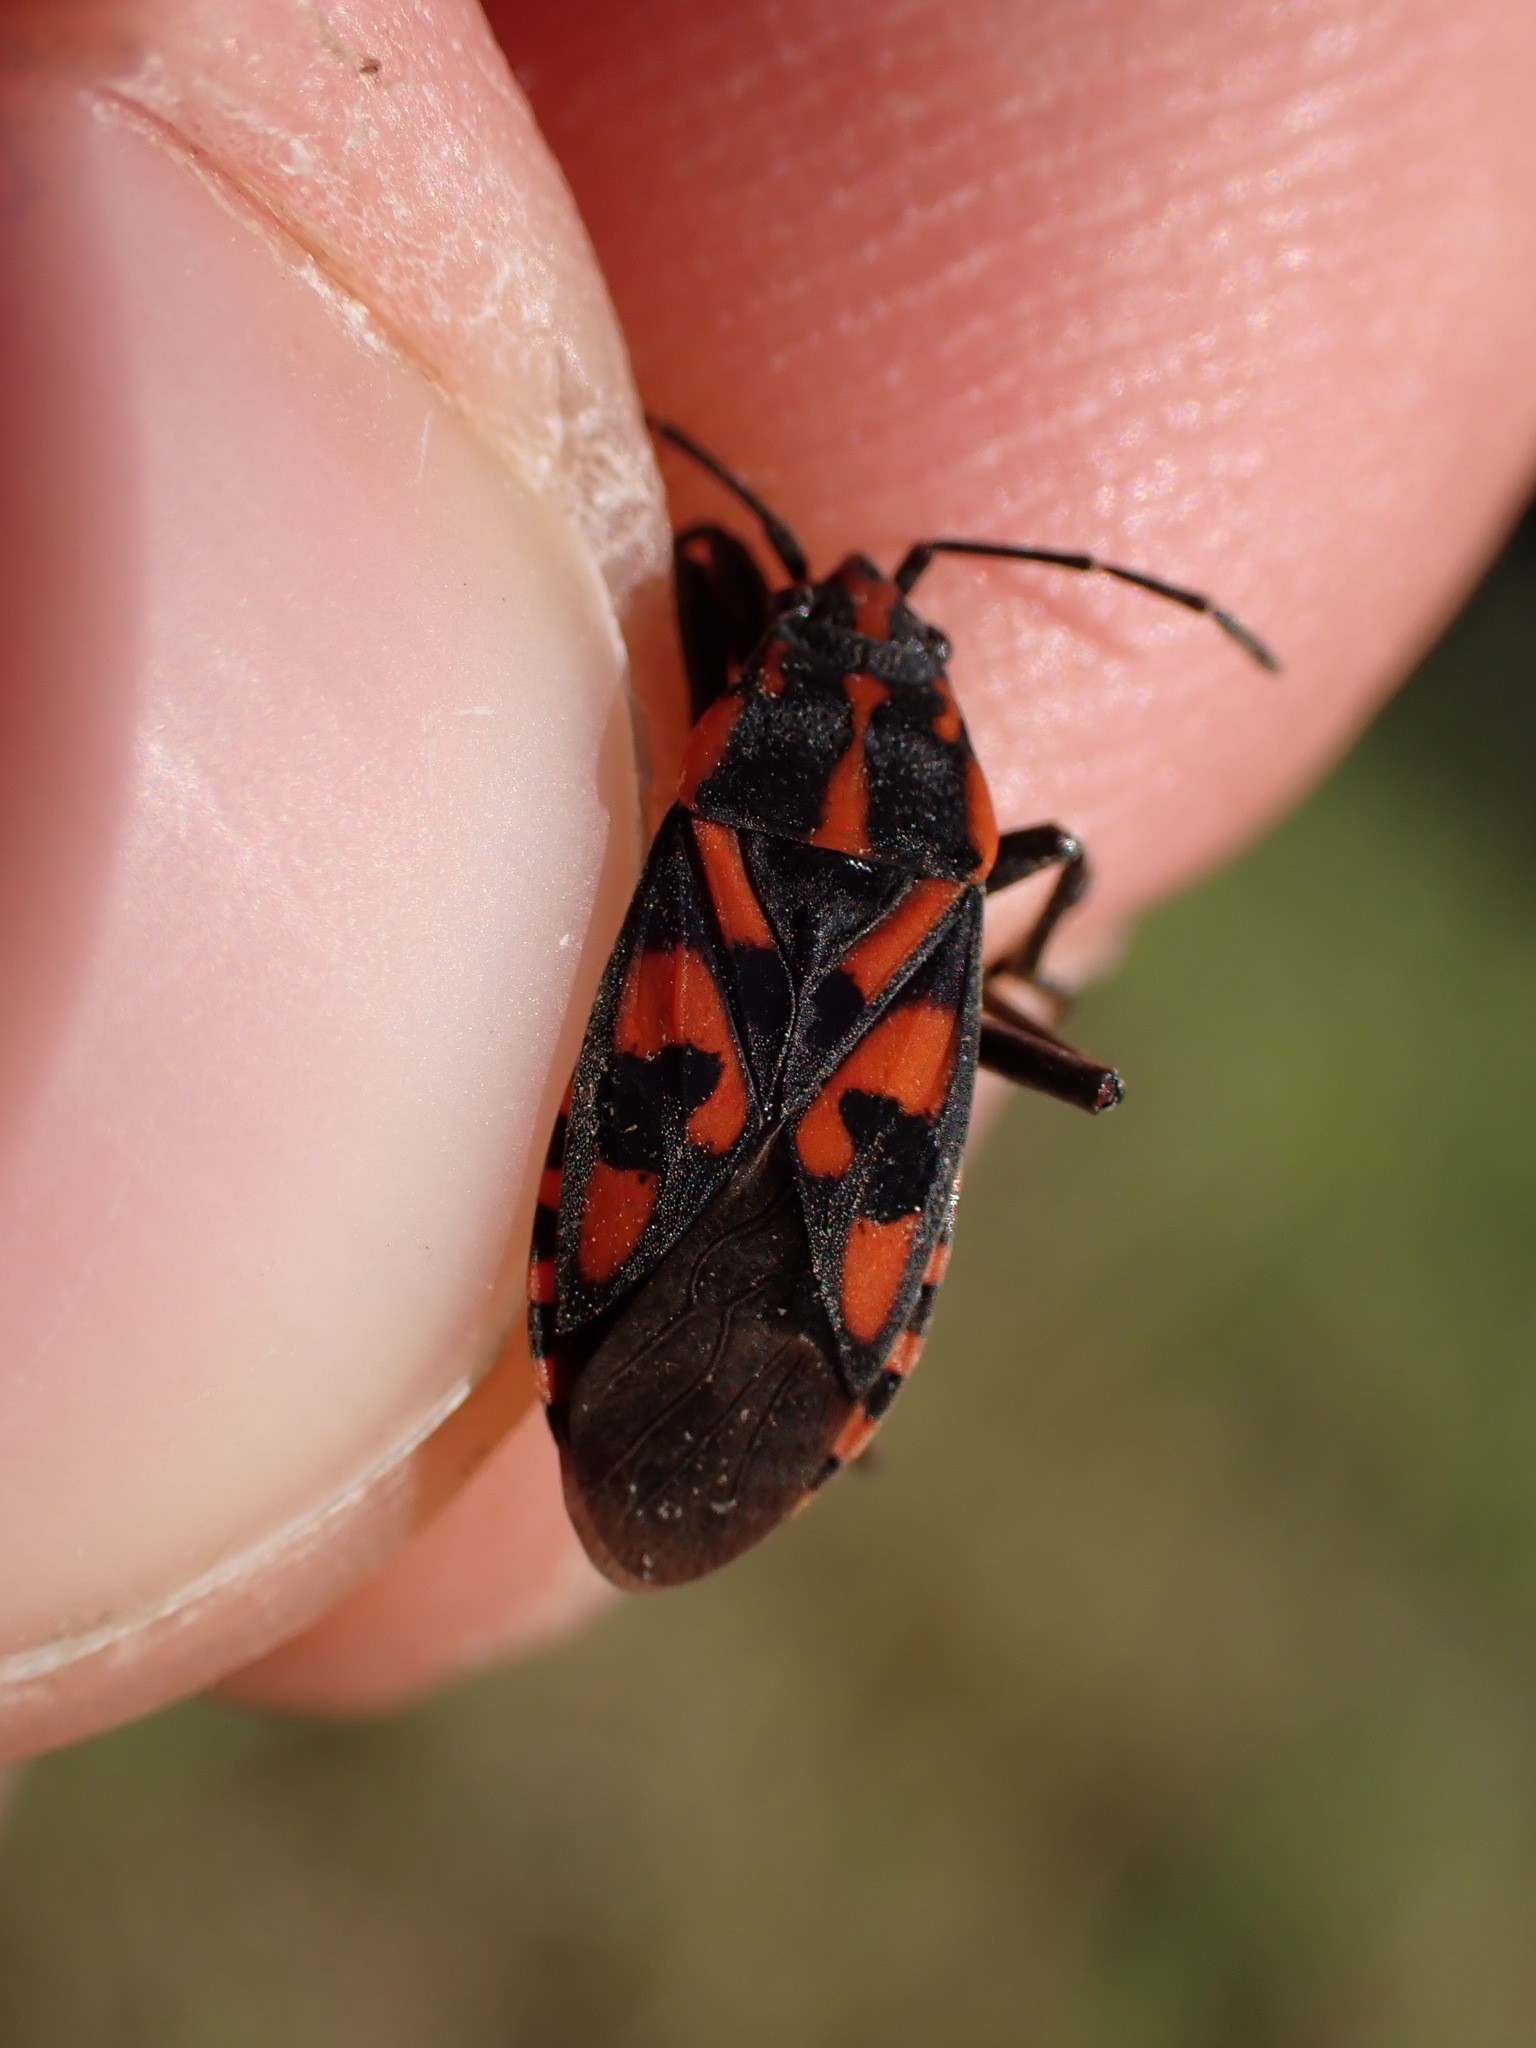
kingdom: Animalia
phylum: Arthropoda
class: Insecta
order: Hemiptera
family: Lygaeidae
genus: Spilostethus
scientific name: Spilostethus saxatilis
